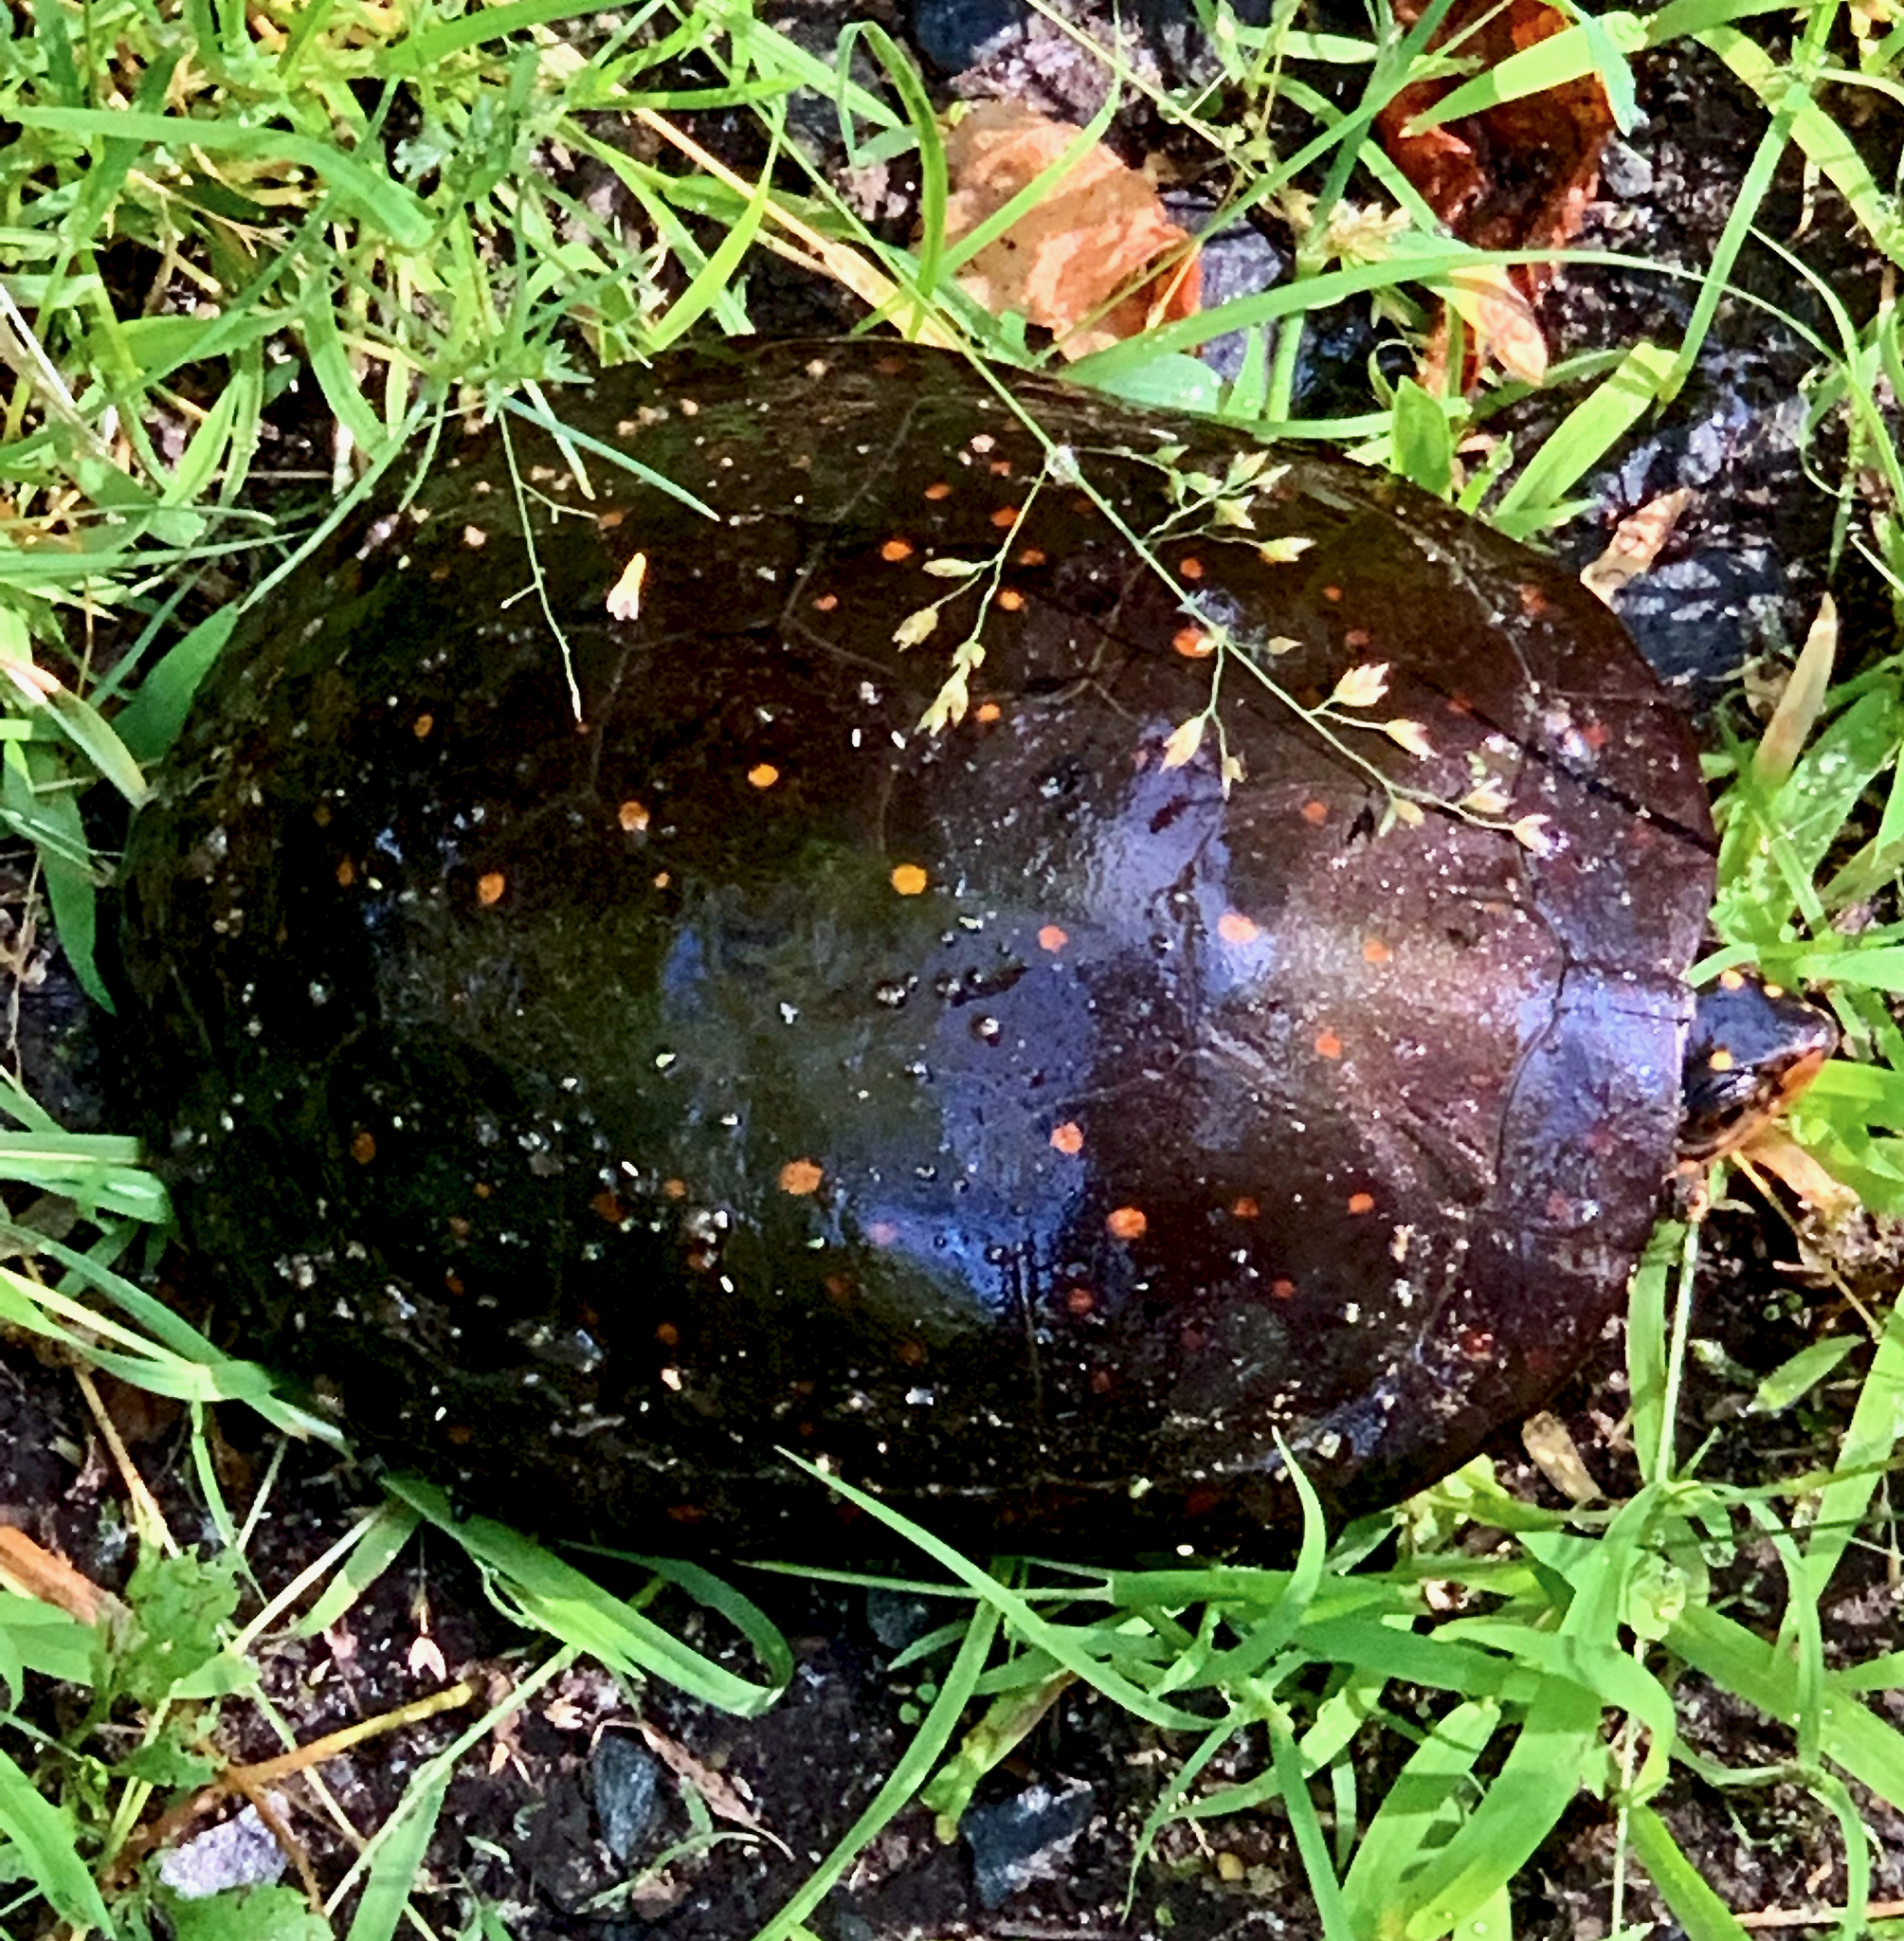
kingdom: Animalia
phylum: Chordata
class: Testudines
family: Emydidae
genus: Clemmys
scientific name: Clemmys guttata
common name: Spotted turtle
